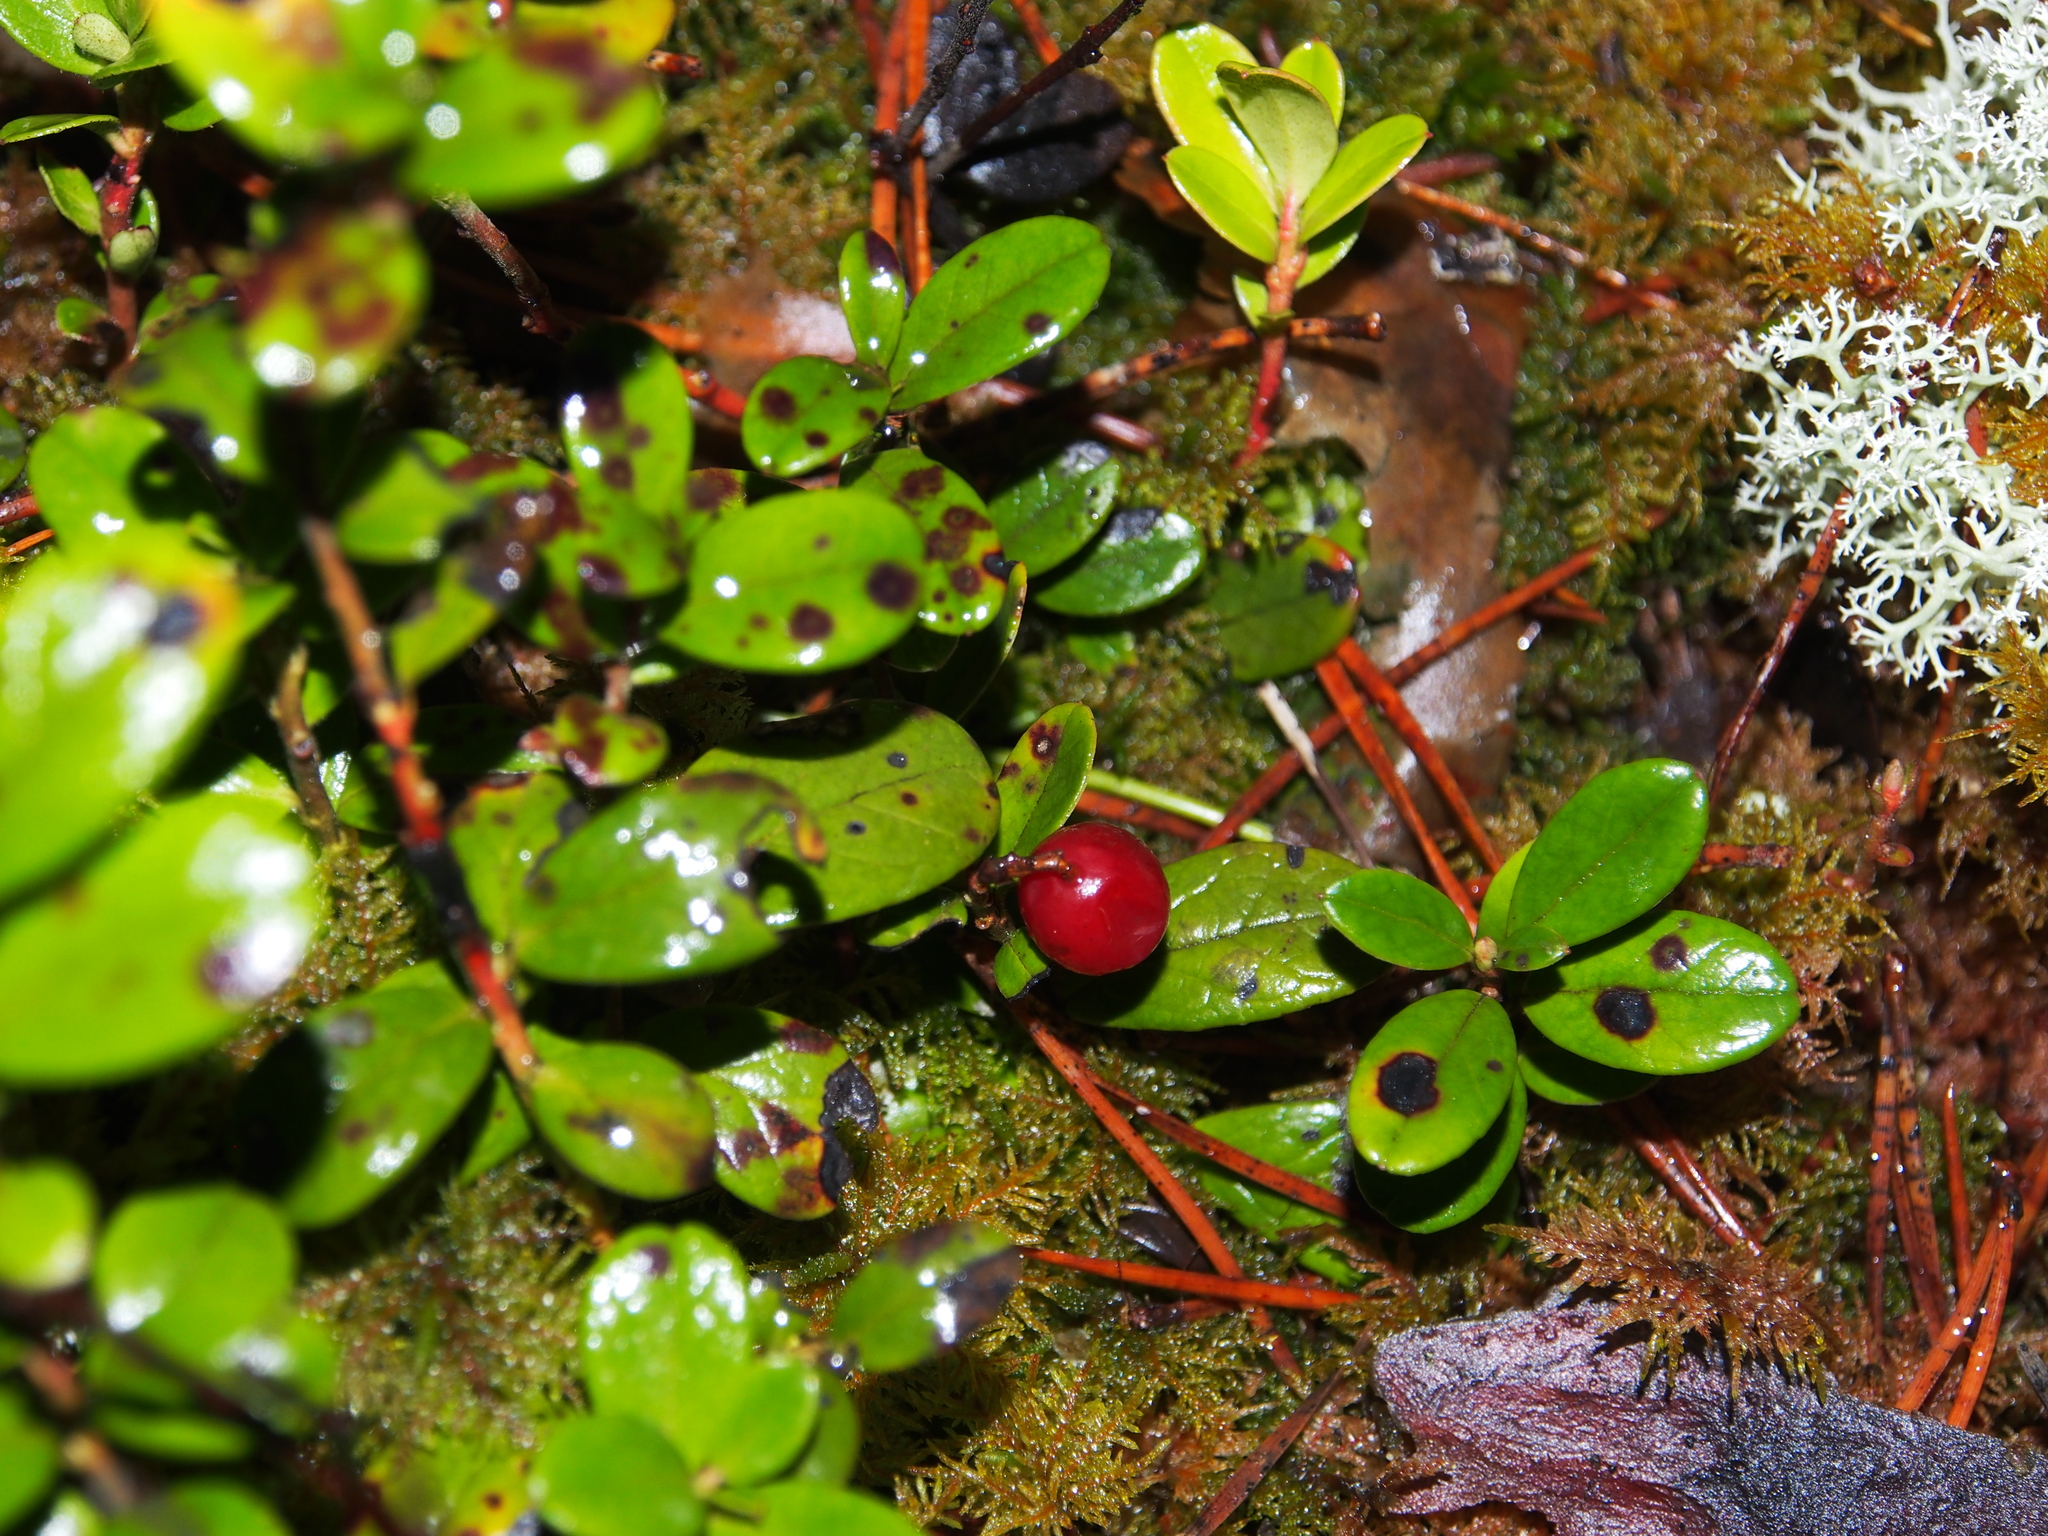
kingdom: Plantae
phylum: Tracheophyta
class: Magnoliopsida
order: Ericales
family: Ericaceae
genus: Vaccinium
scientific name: Vaccinium vitis-idaea
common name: Cowberry
